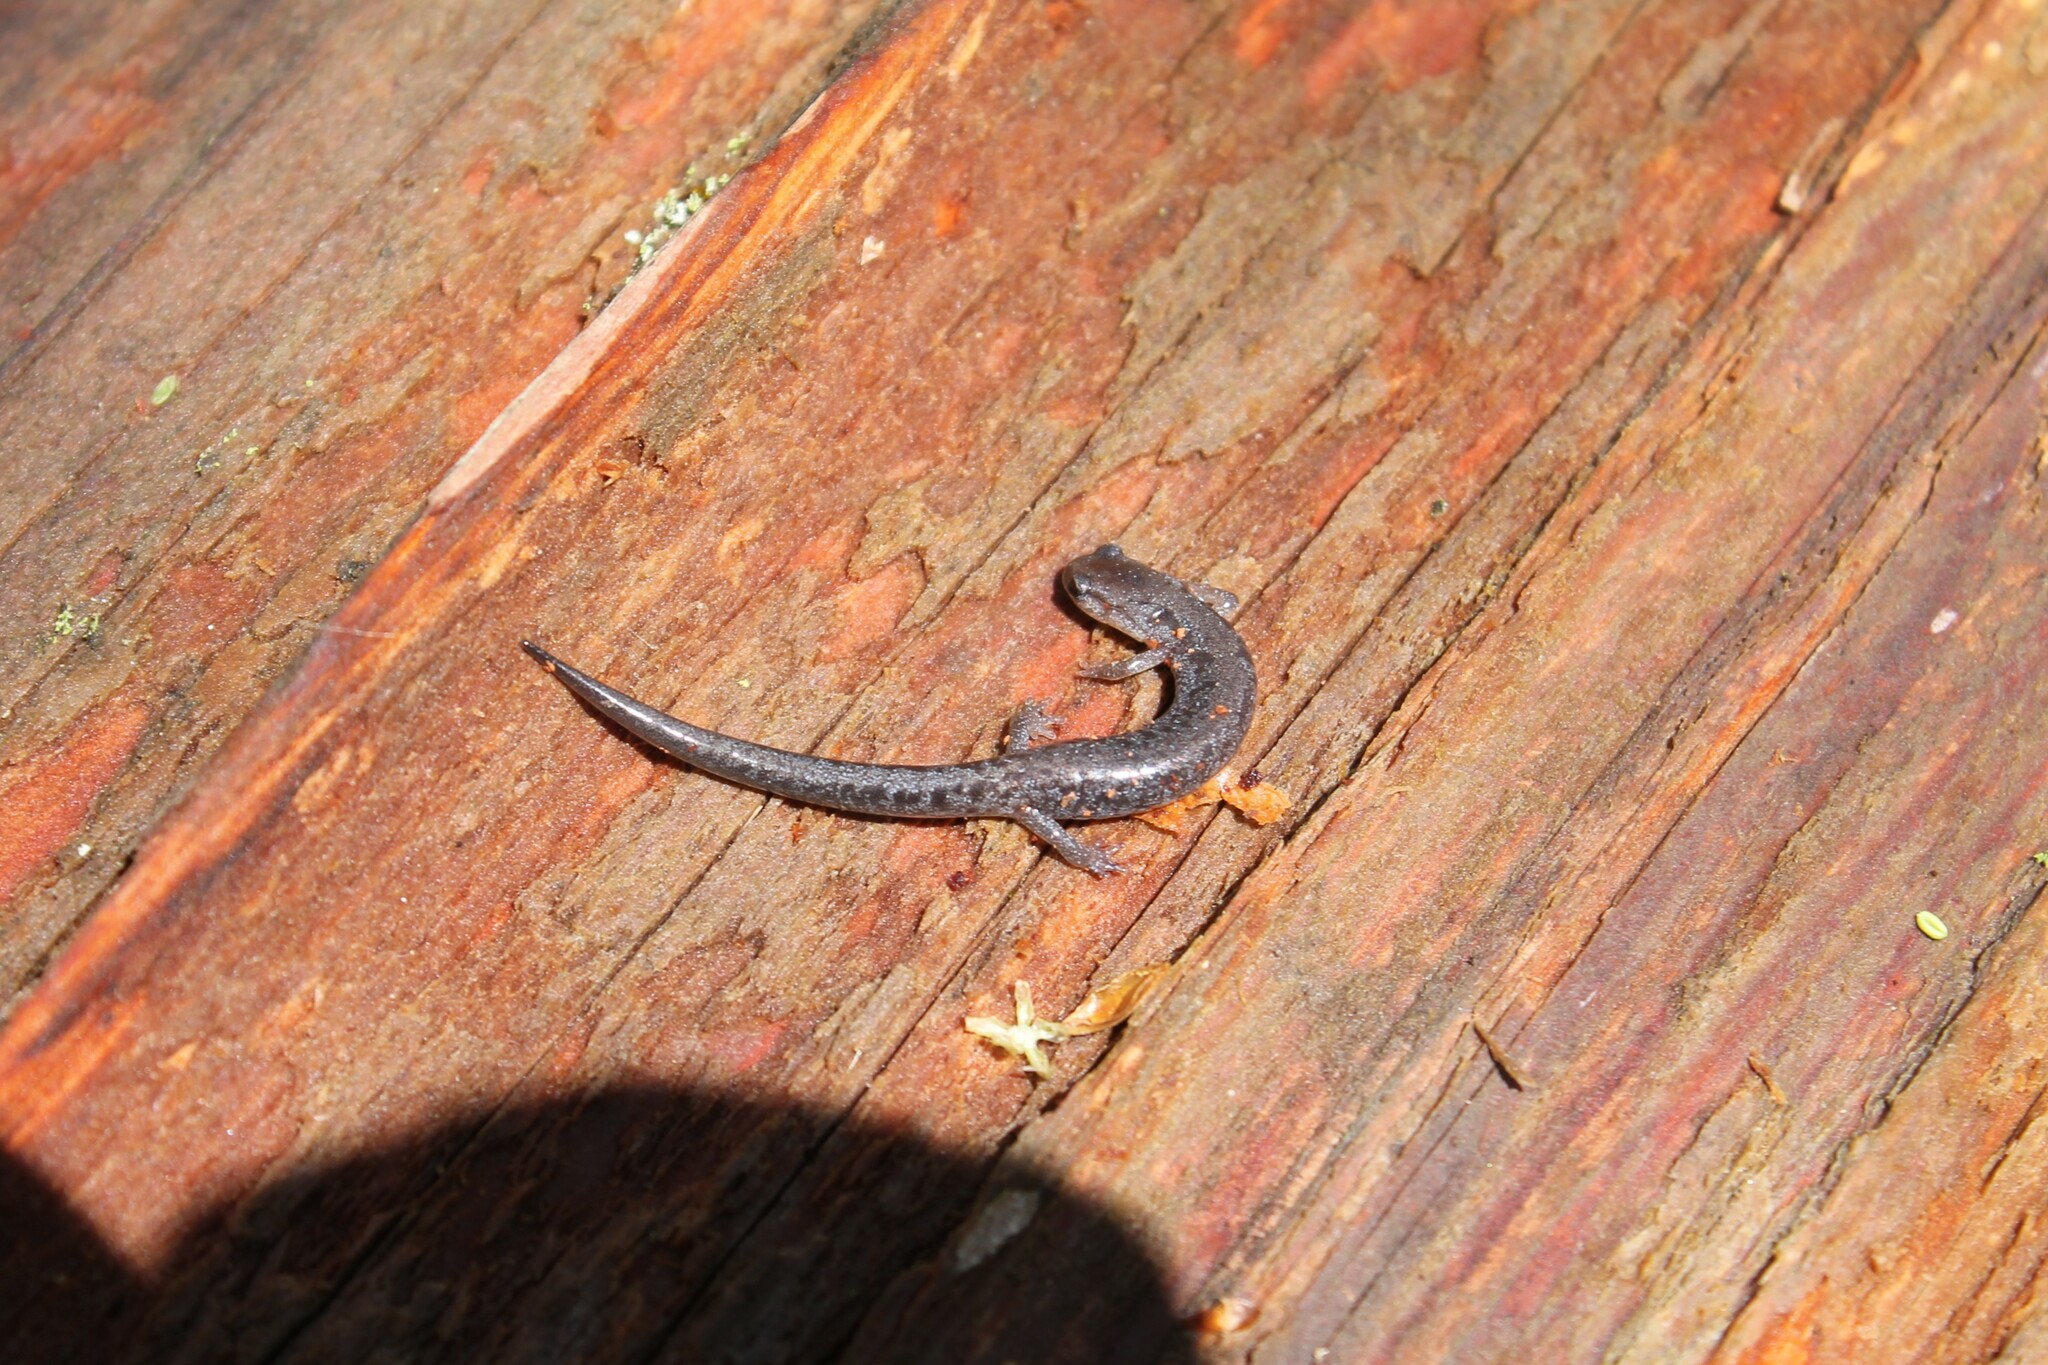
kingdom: Animalia
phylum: Chordata
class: Amphibia
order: Caudata
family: Plethodontidae
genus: Plethodon
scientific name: Plethodon dorsalis
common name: Northern zigzag salamander
